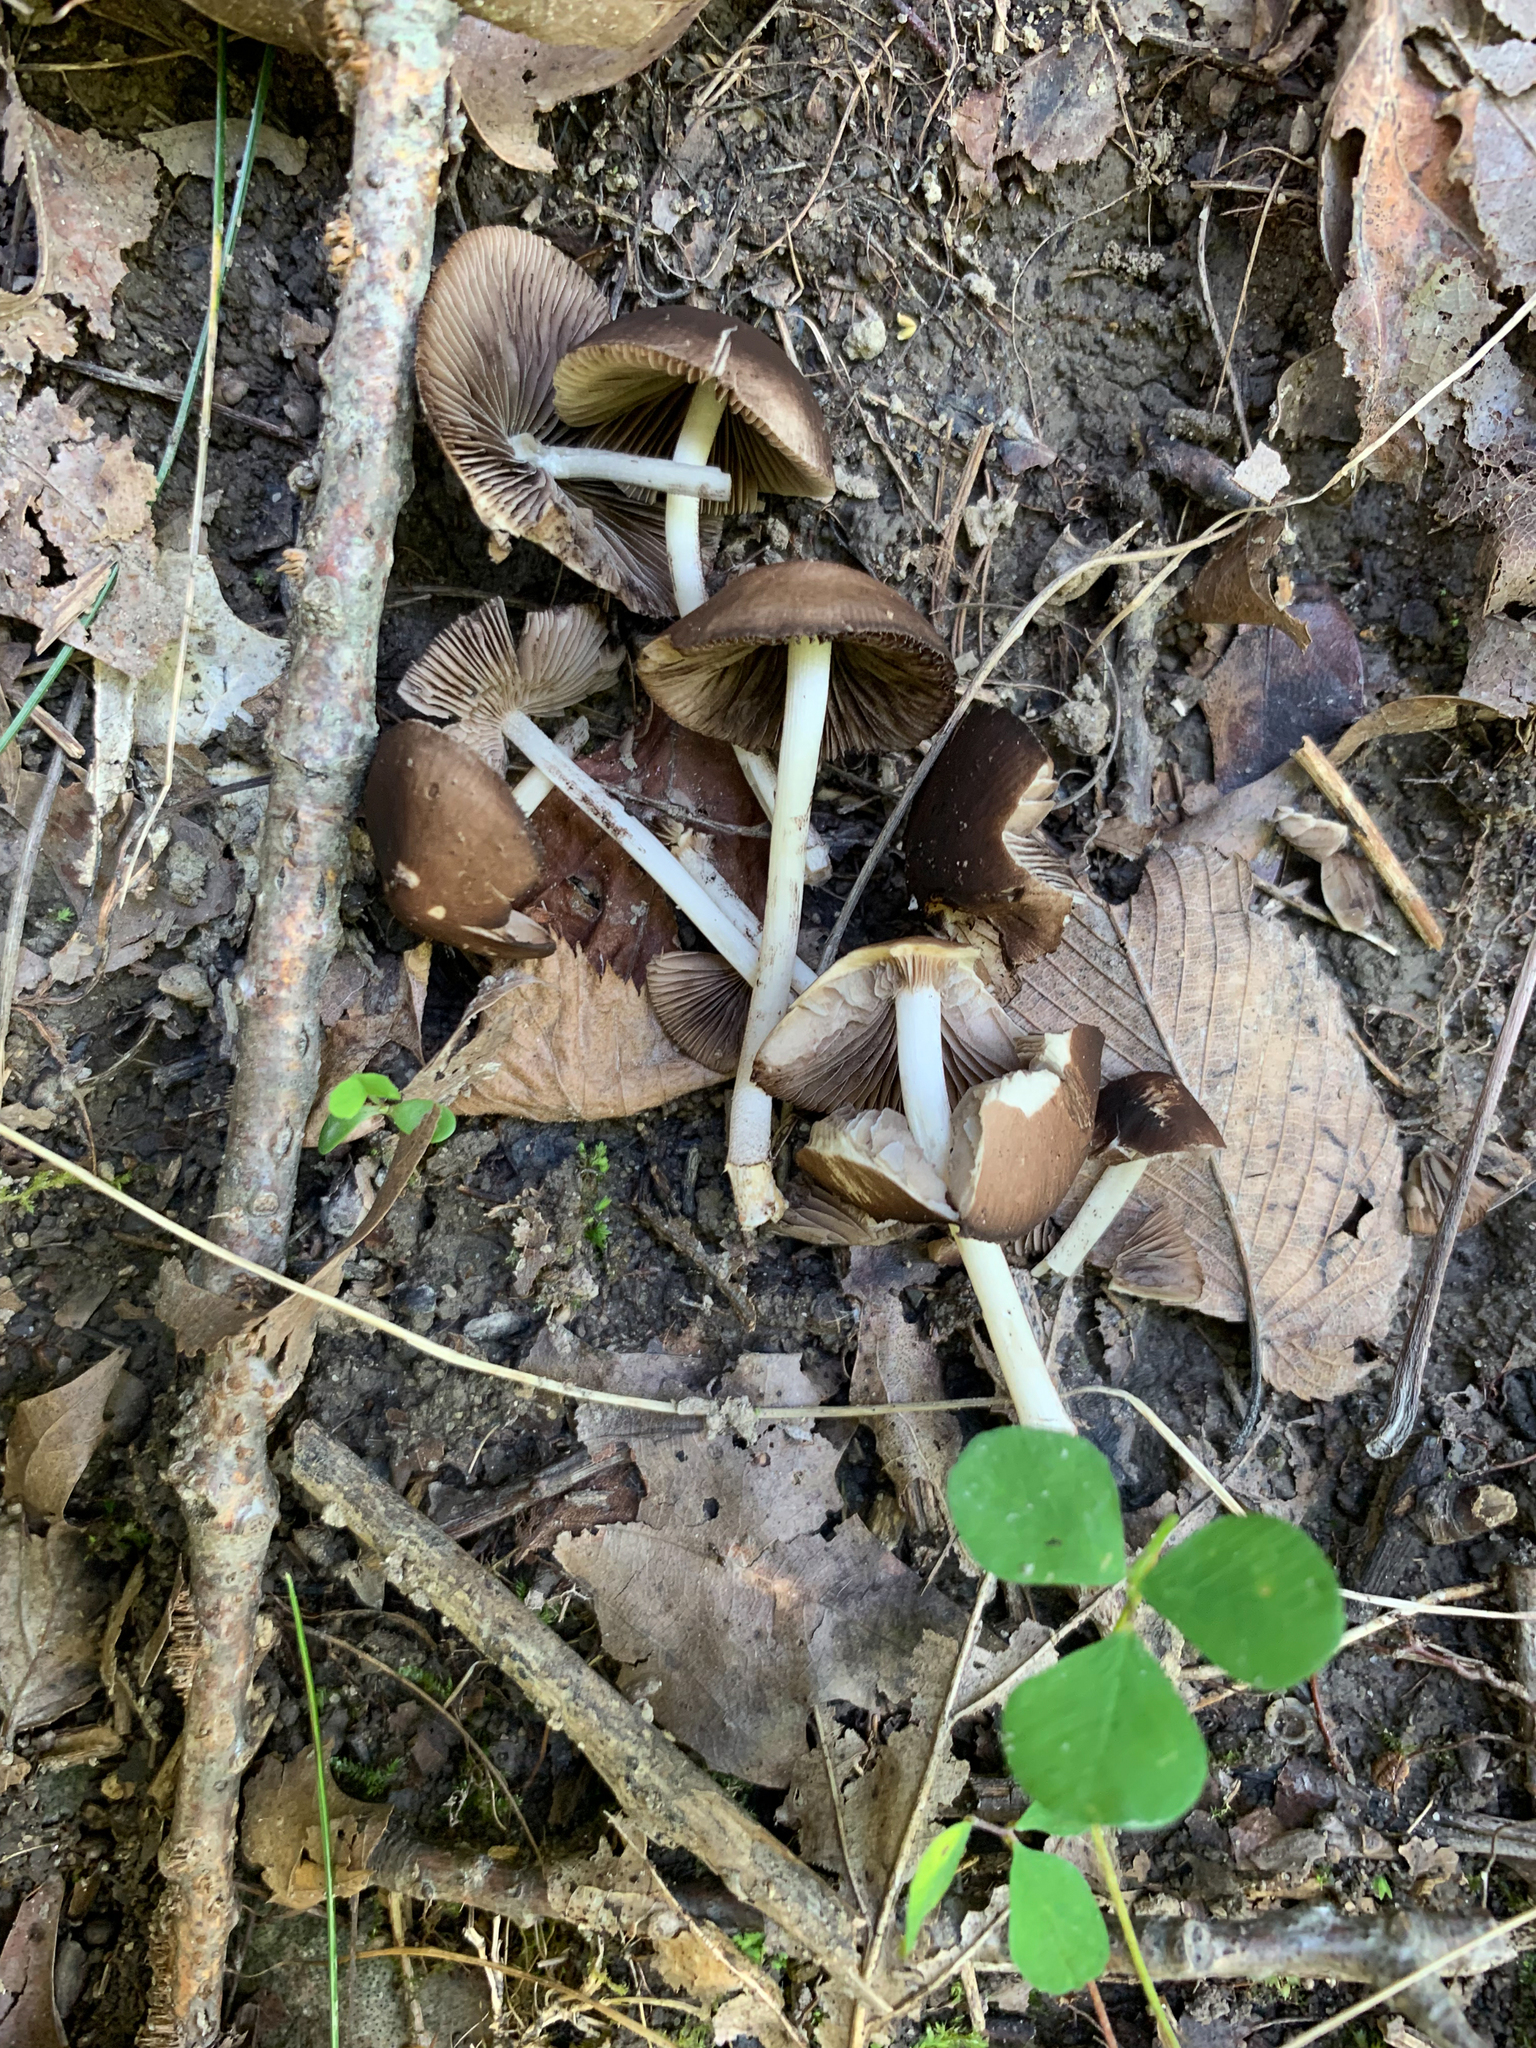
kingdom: Fungi
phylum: Basidiomycota
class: Agaricomycetes
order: Agaricales
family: Psathyrellaceae
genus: Psathyrella
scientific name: Psathyrella piluliformis
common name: Common stump brittlestem
